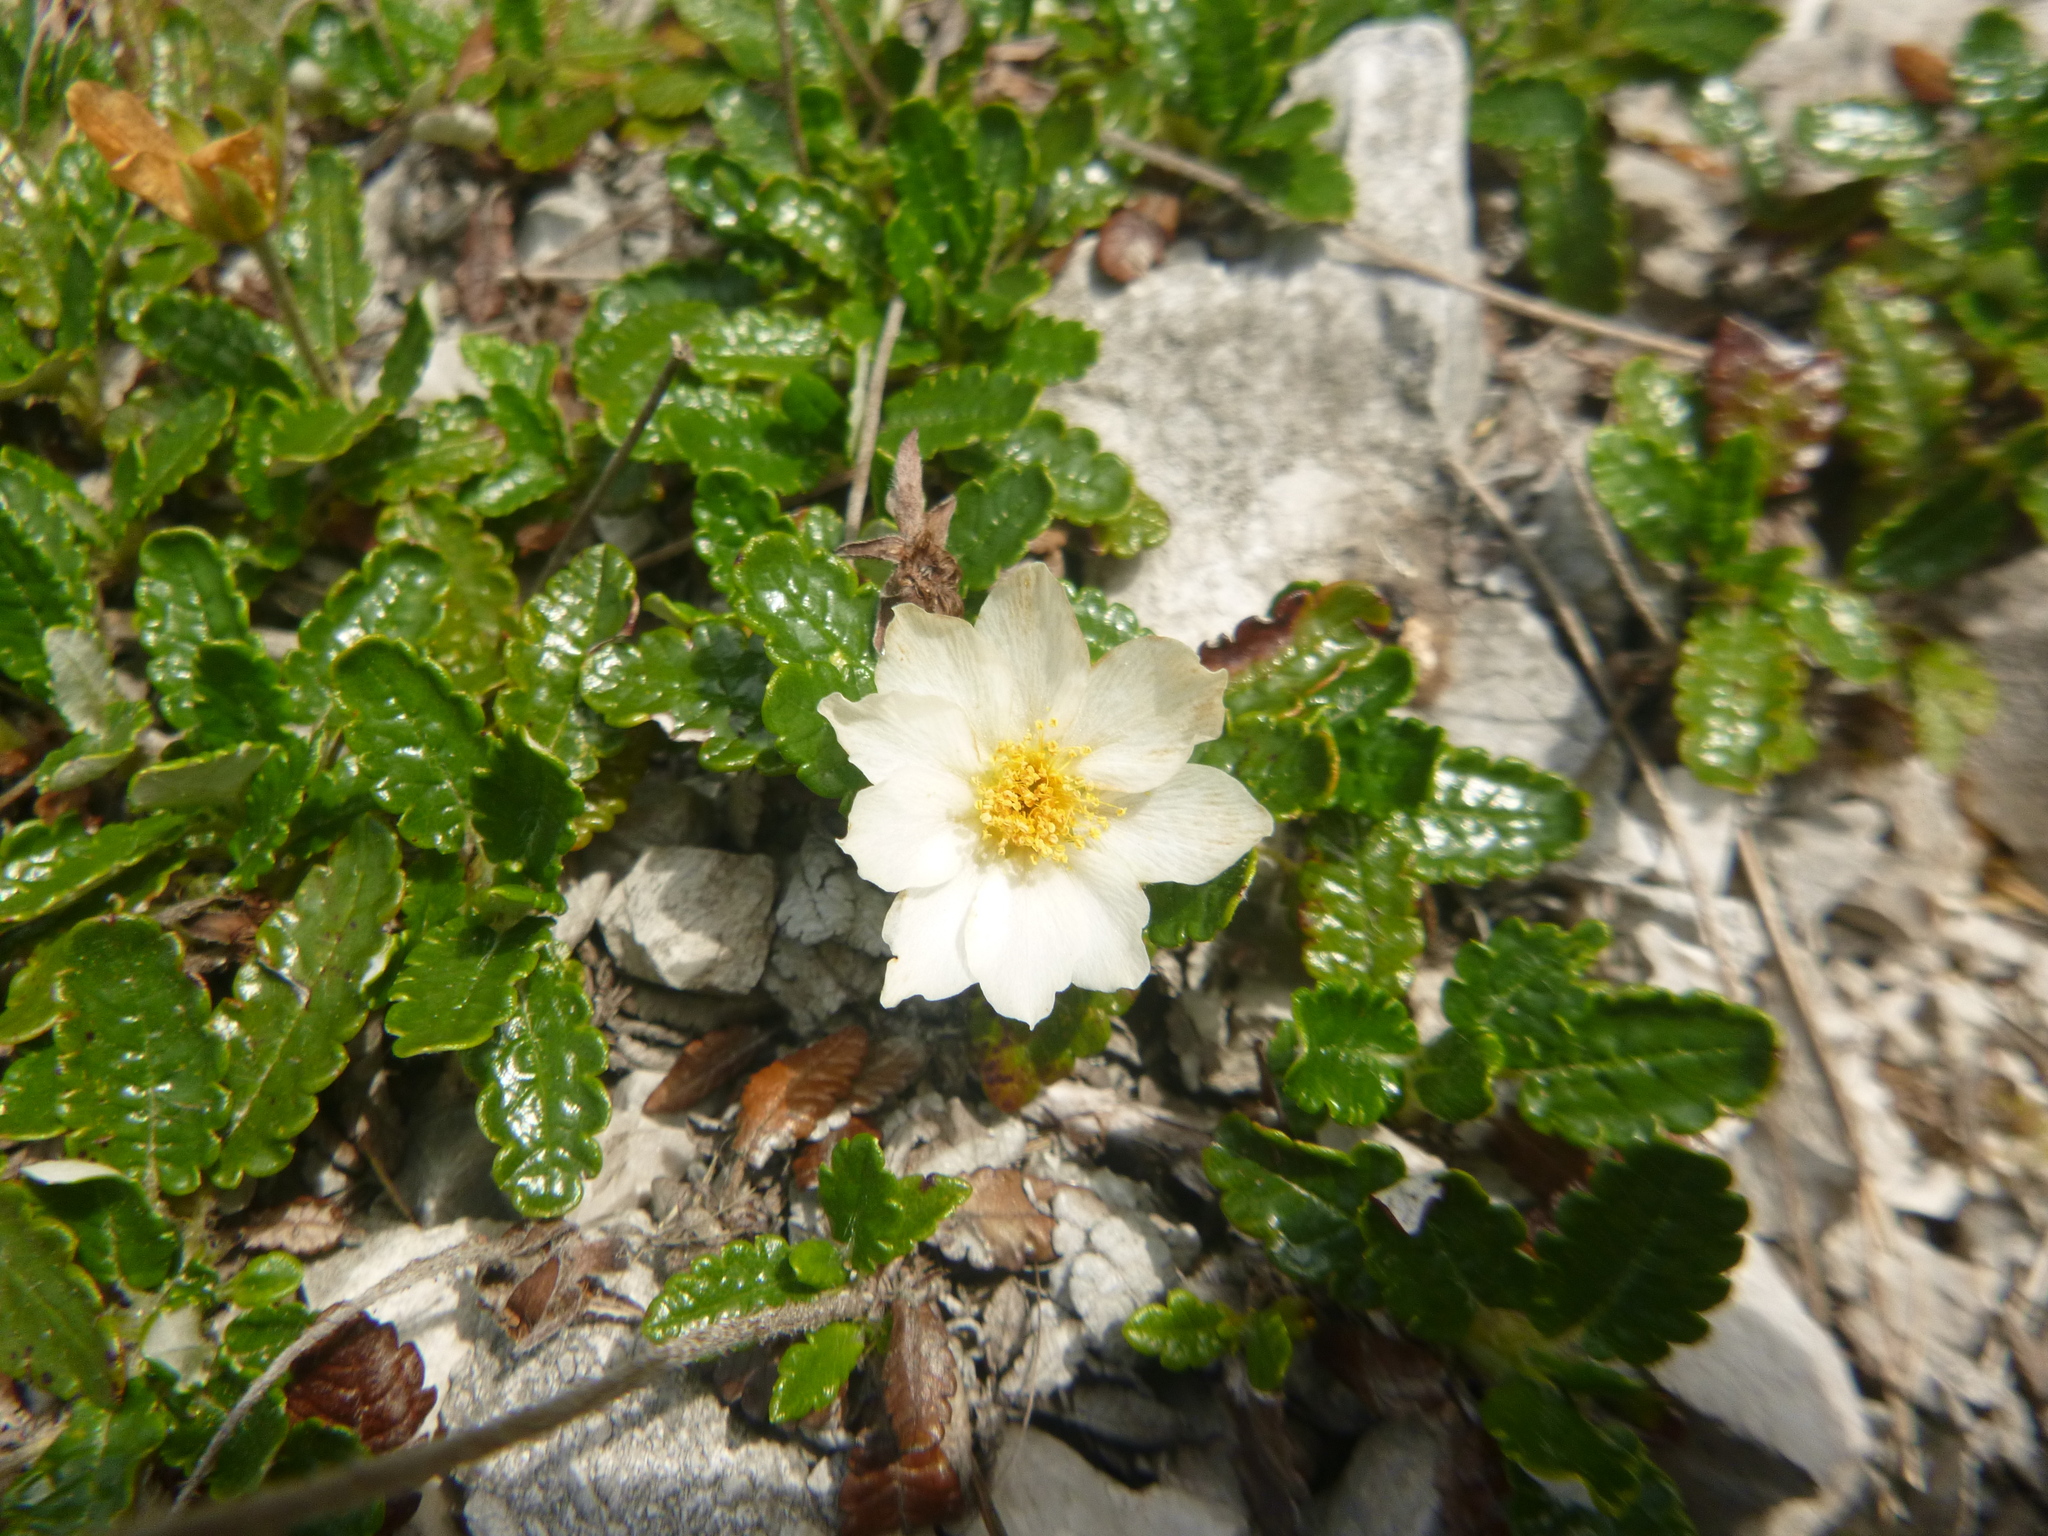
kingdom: Plantae
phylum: Tracheophyta
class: Magnoliopsida
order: Rosales
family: Rosaceae
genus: Dryas
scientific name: Dryas octopetala
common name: Eight-petal mountain-avens
